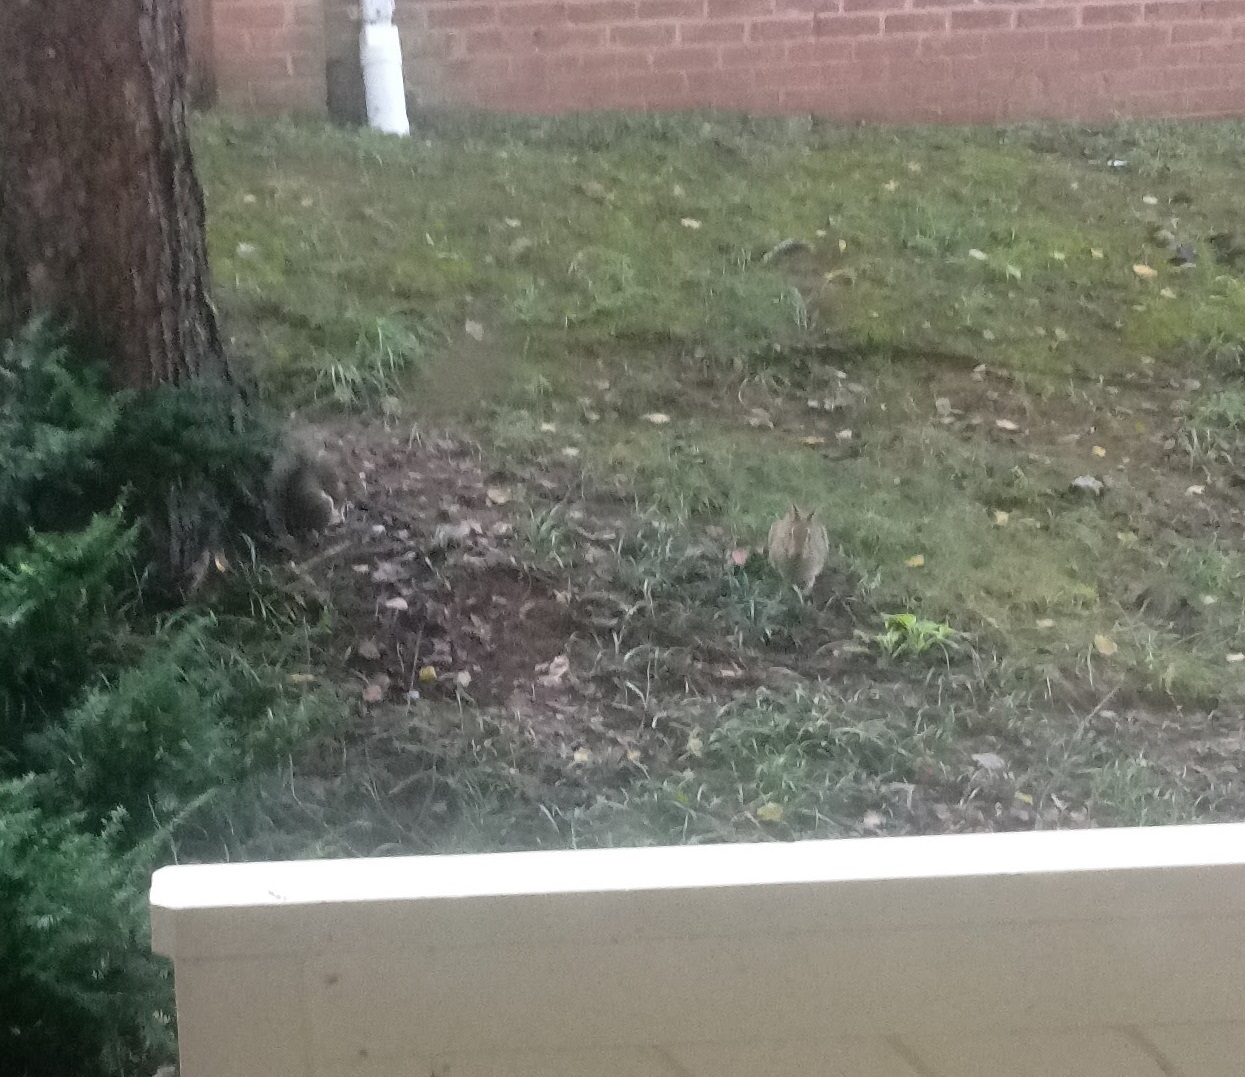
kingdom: Animalia
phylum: Chordata
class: Mammalia
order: Rodentia
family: Sciuridae
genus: Sciurus
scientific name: Sciurus carolinensis
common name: Eastern gray squirrel
